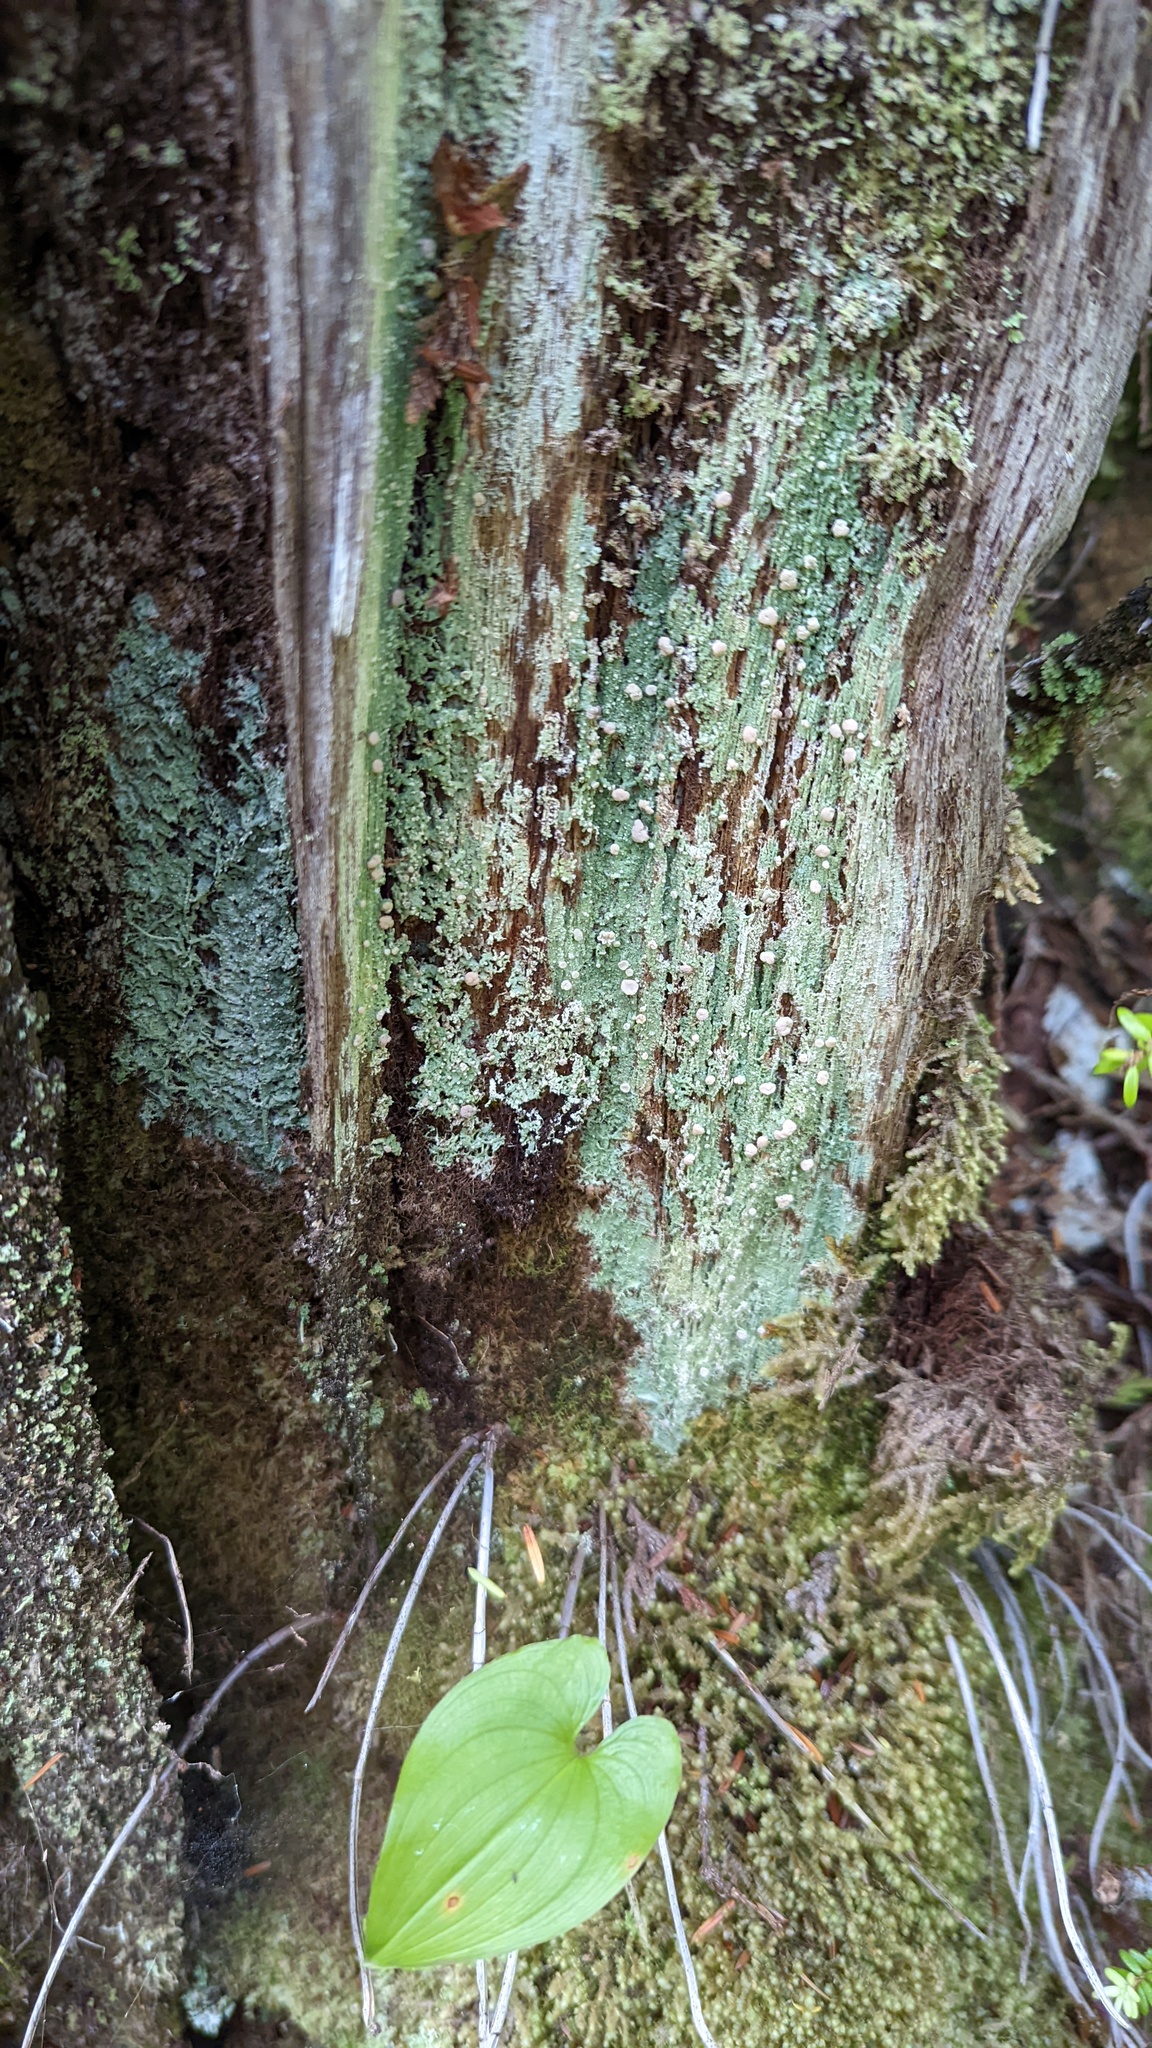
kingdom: Fungi
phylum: Ascomycota
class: Lecanoromycetes
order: Pertusariales
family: Icmadophilaceae
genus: Icmadophila
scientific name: Icmadophila ericetorum
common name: Candy lichen
